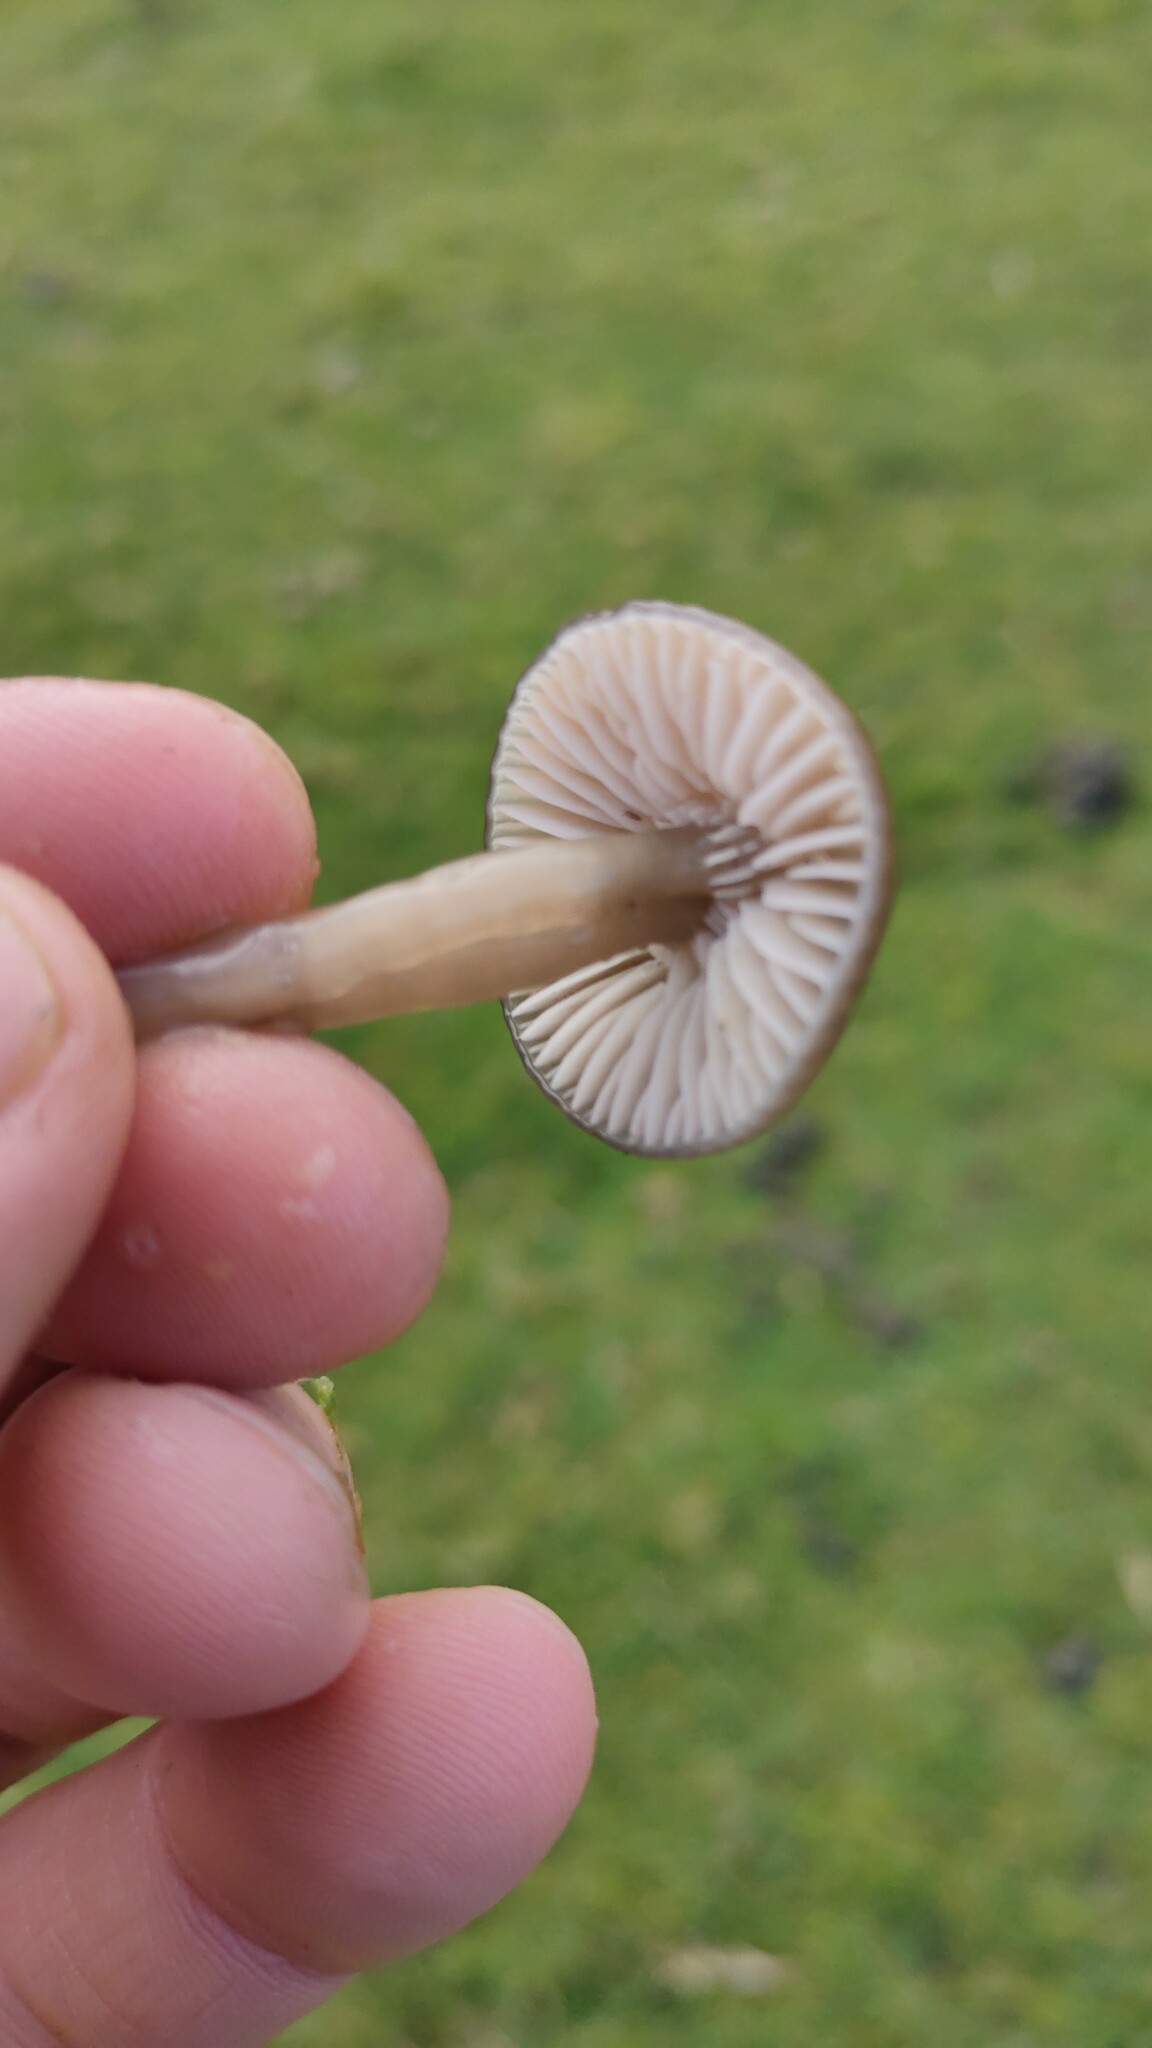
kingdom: Fungi
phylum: Basidiomycota
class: Agaricomycetes
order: Agaricales
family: Hygrophoraceae
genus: Gliophorus
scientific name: Gliophorus irrigatus
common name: Slimy waxcap
